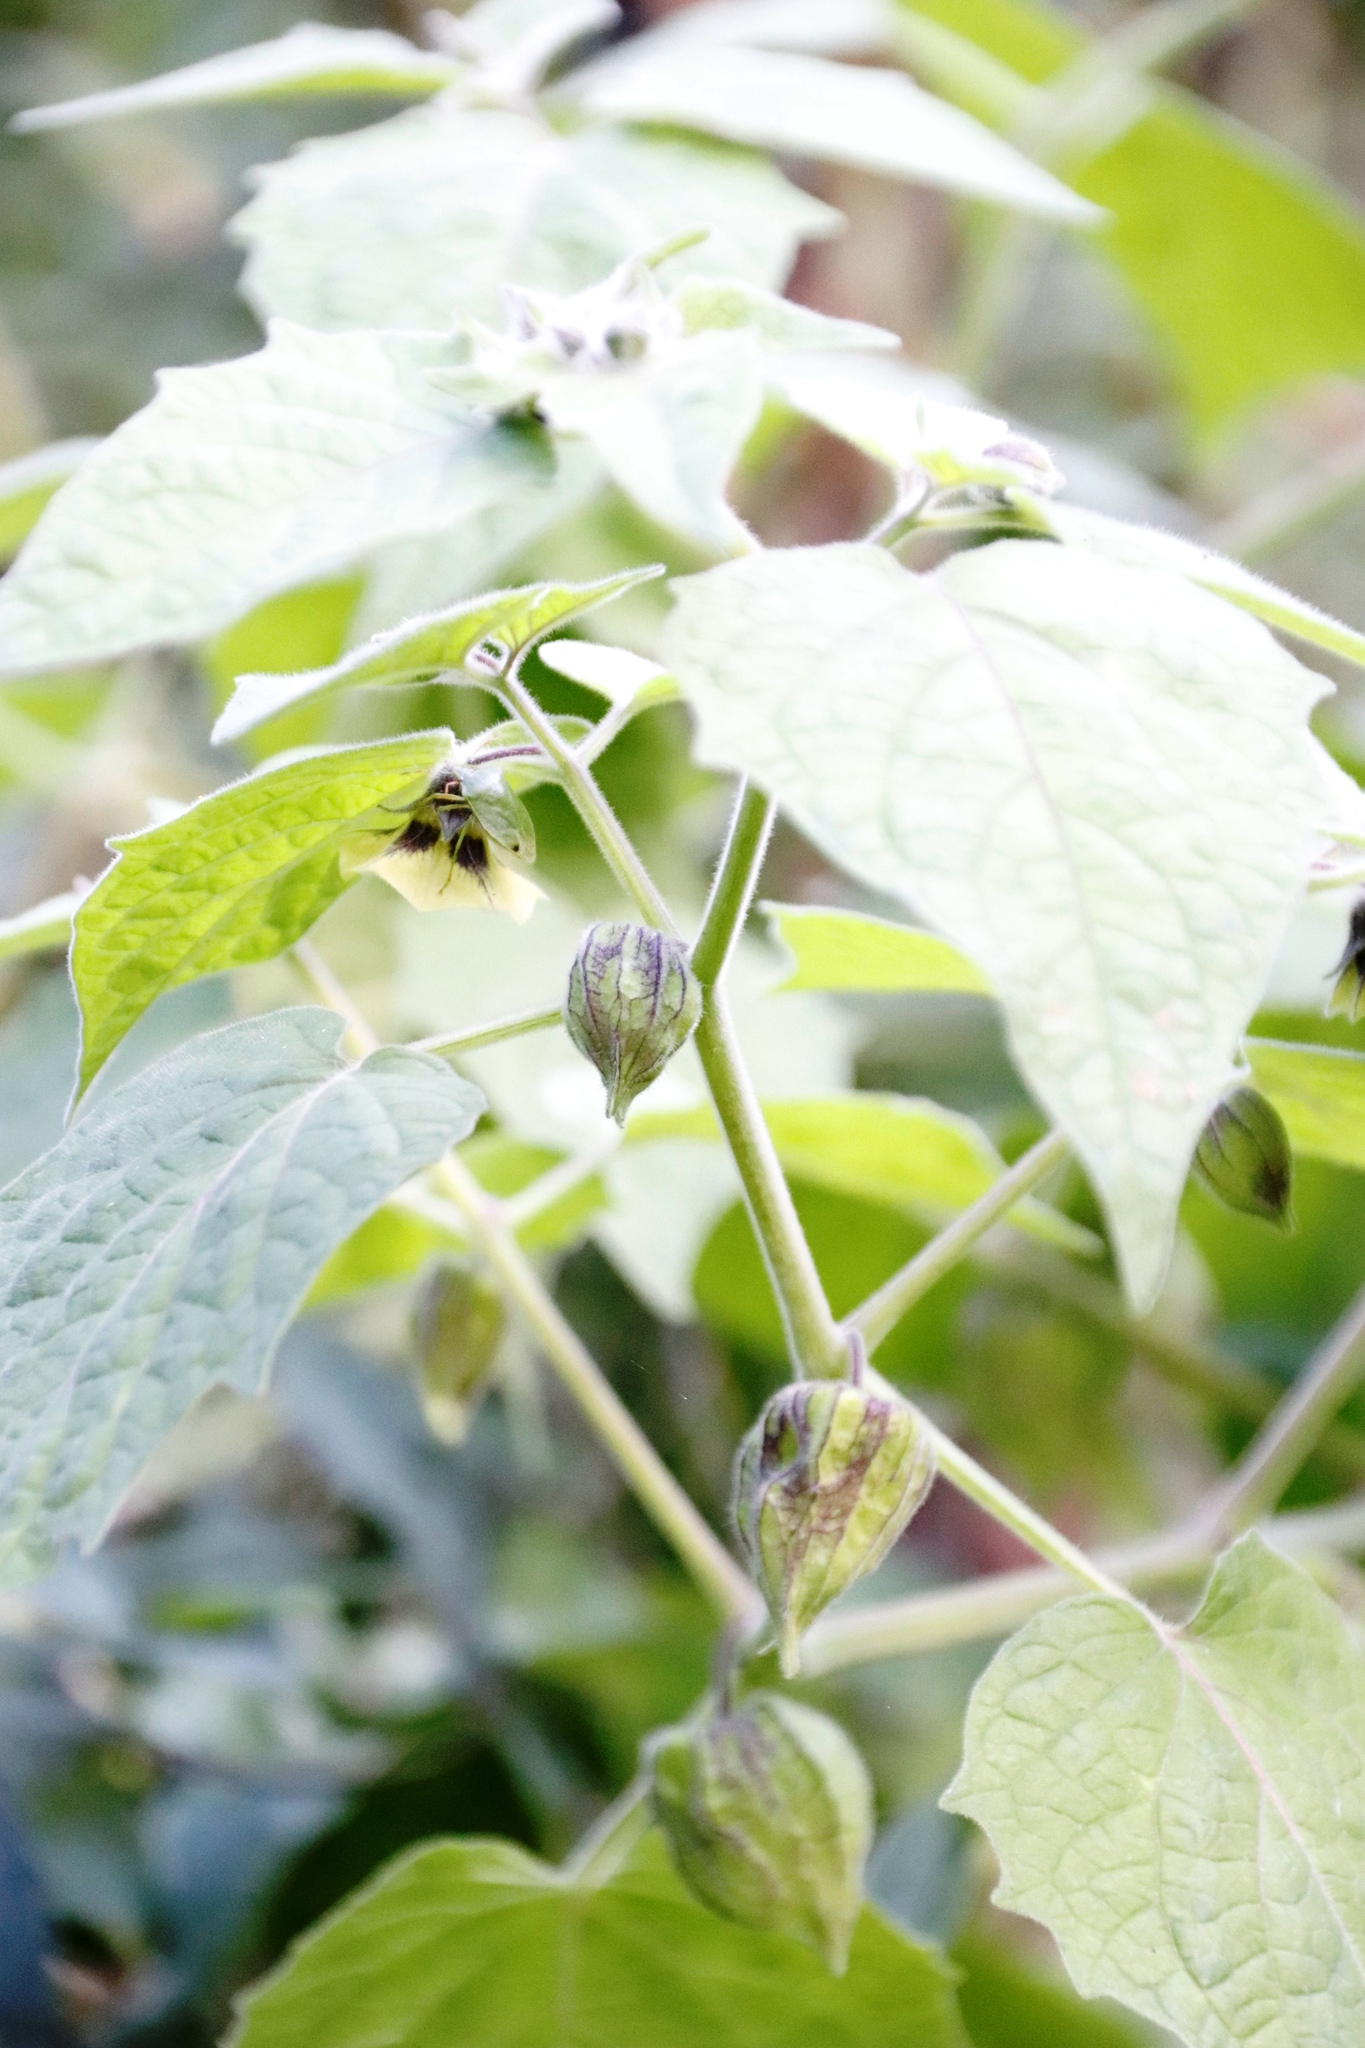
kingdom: Plantae
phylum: Tracheophyta
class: Magnoliopsida
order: Solanales
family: Solanaceae
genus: Physalis
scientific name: Physalis peruviana
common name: Cape-gooseberry
